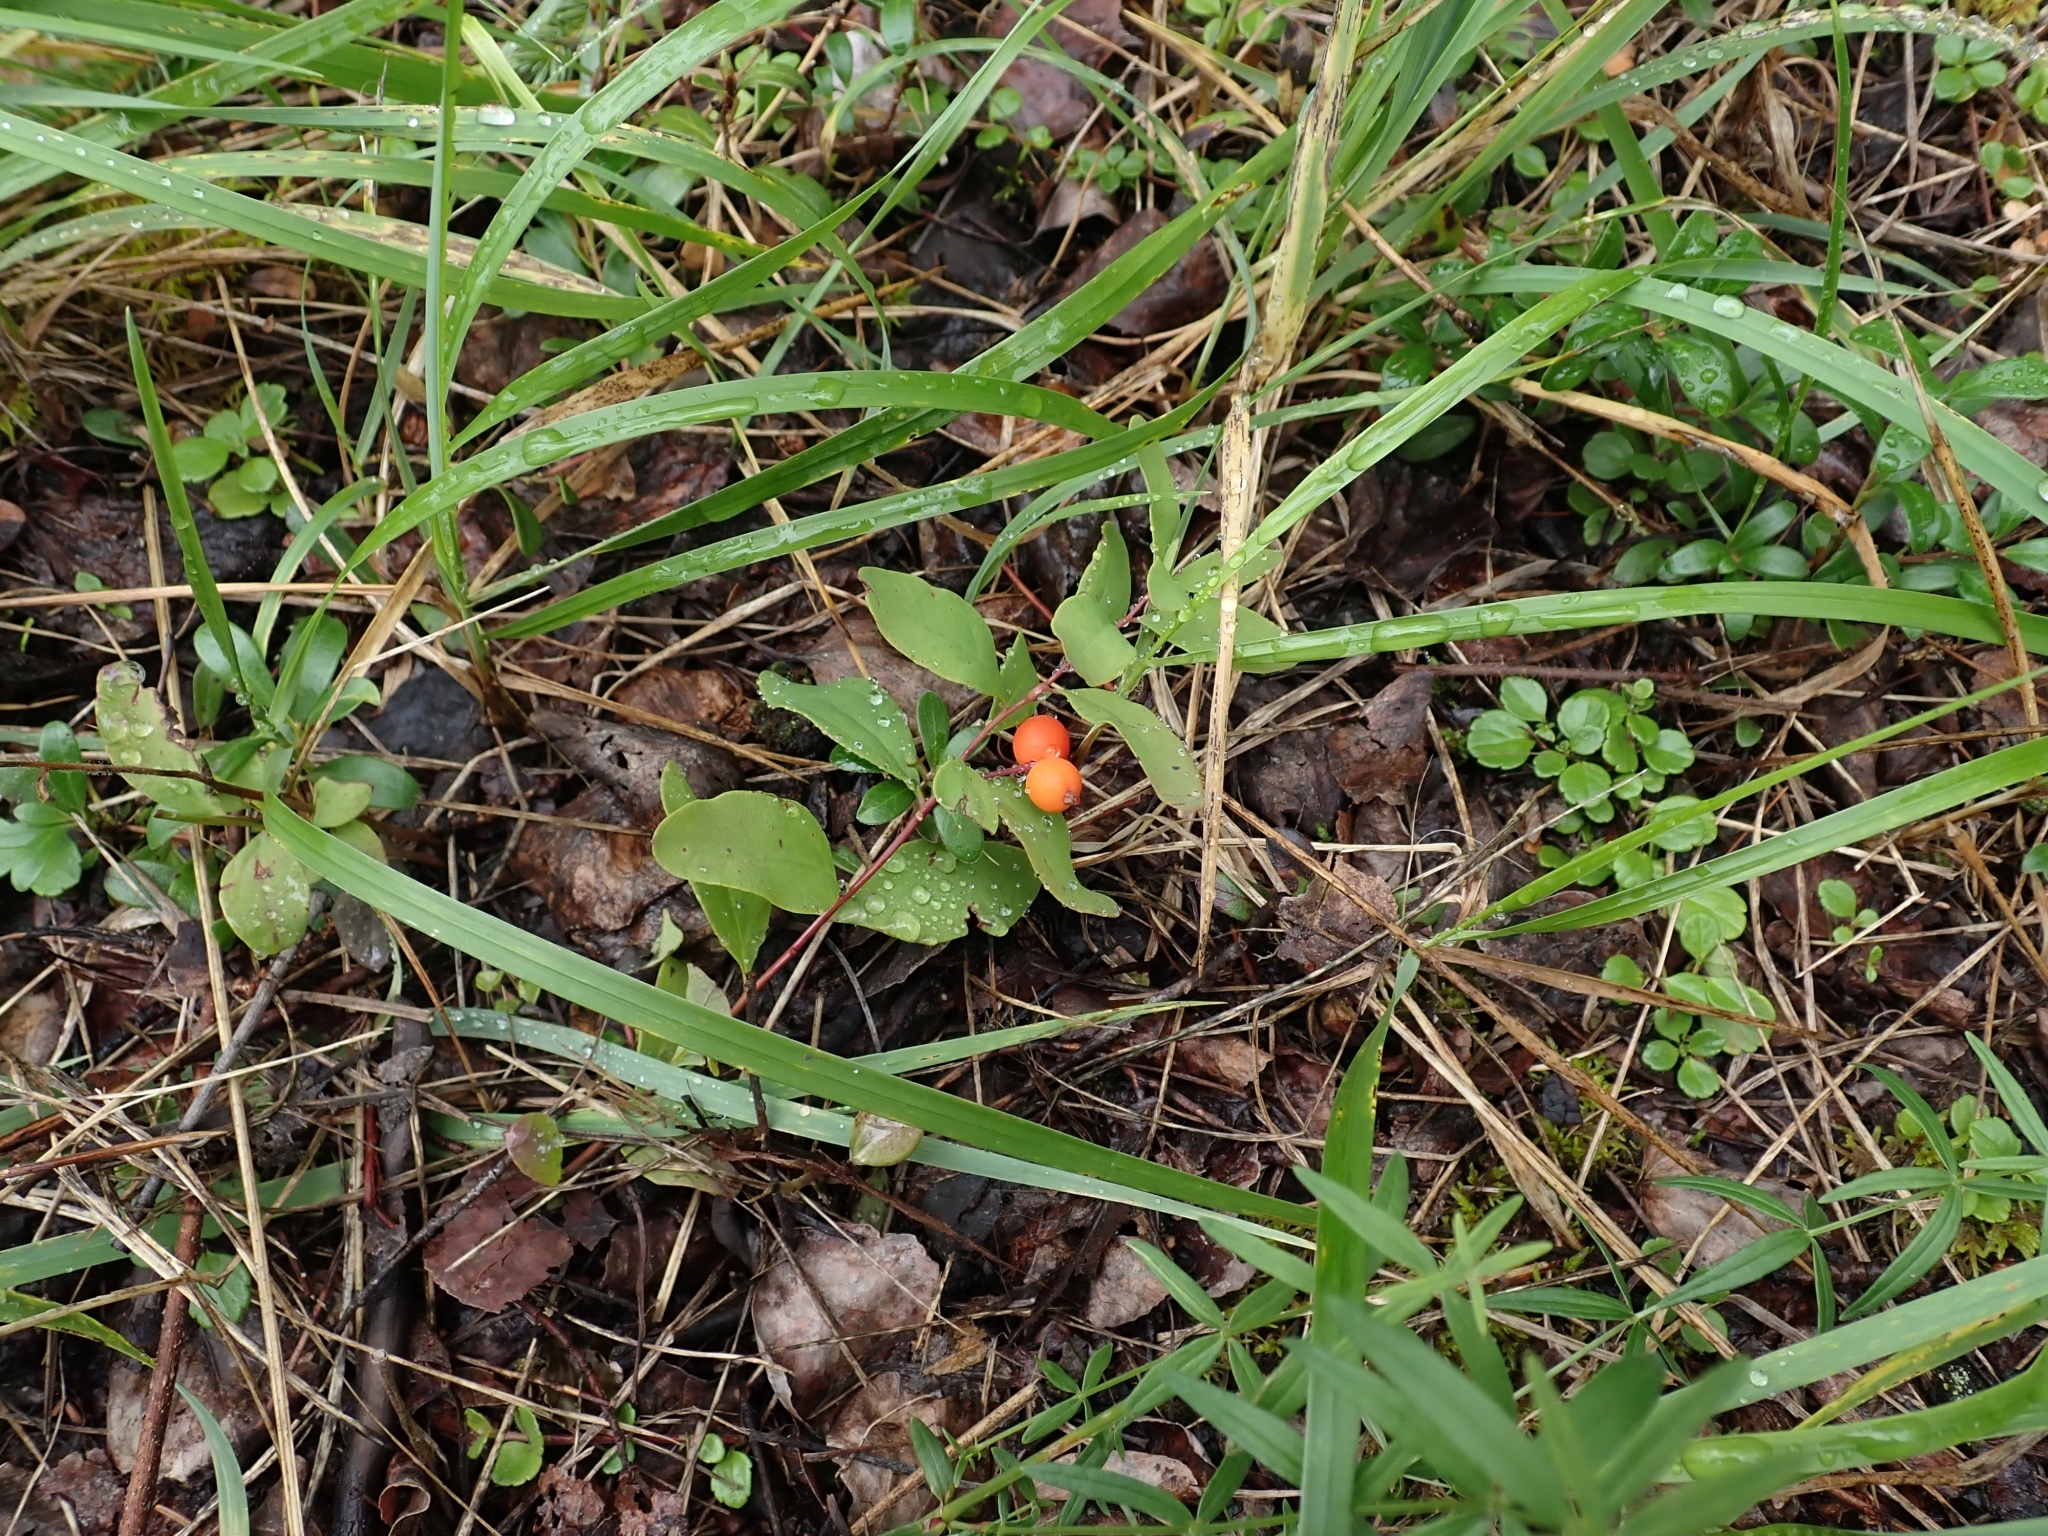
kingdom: Plantae
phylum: Tracheophyta
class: Magnoliopsida
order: Santalales
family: Comandraceae
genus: Geocaulon
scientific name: Geocaulon lividum
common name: Earthberry
